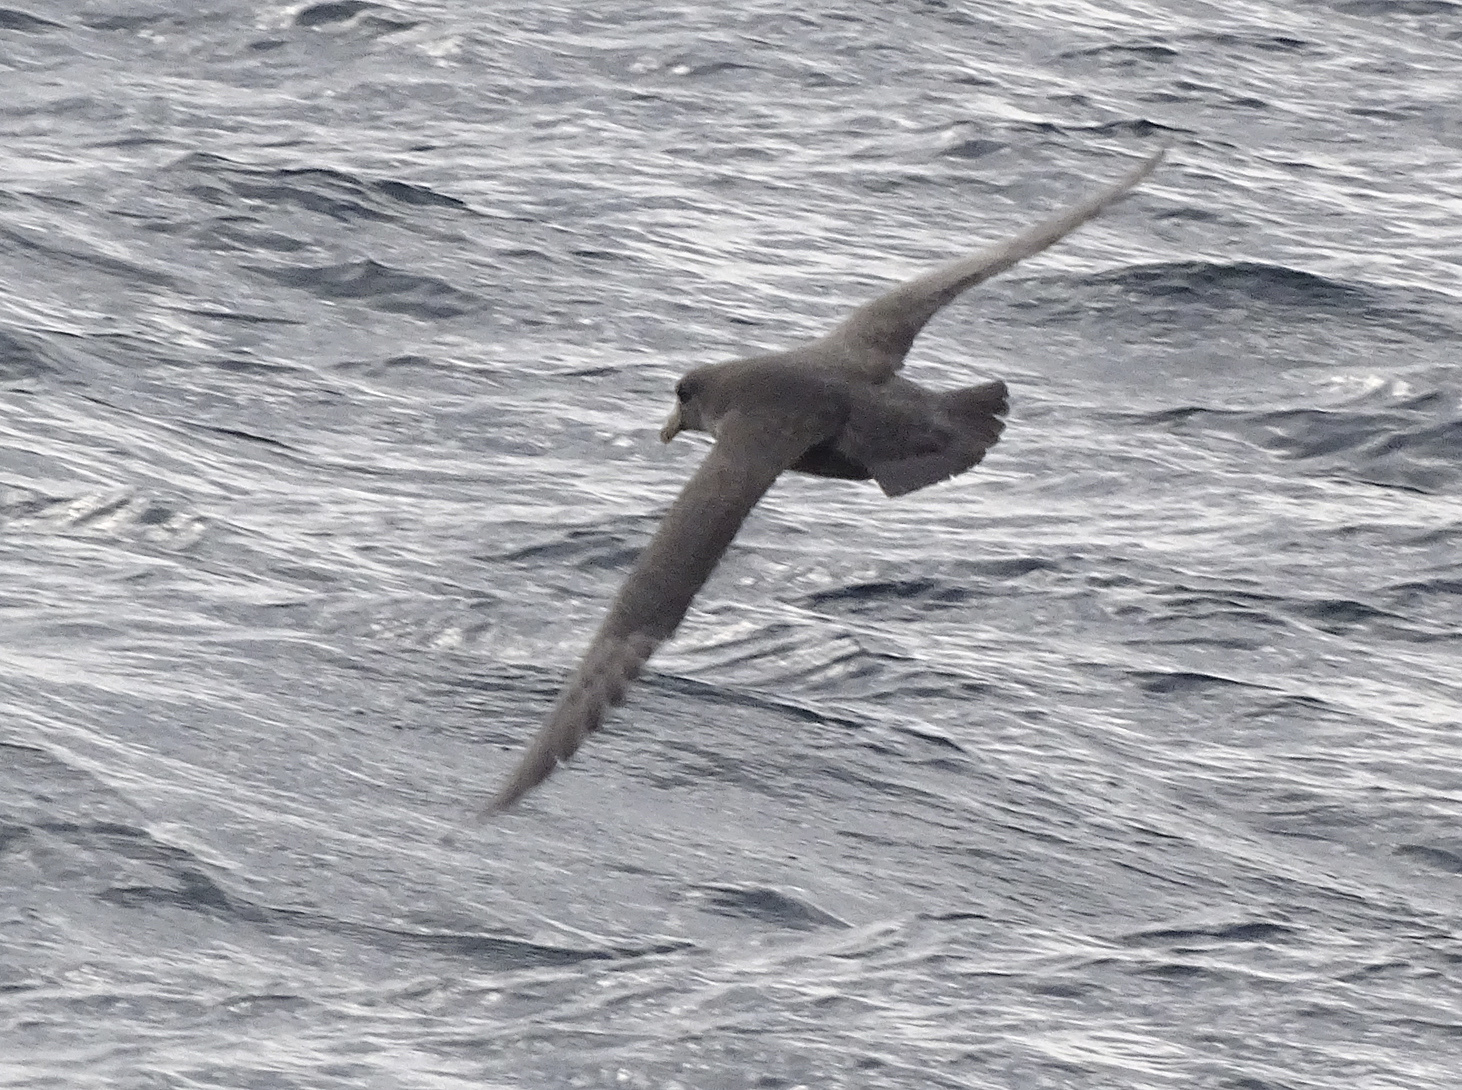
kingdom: Animalia
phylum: Chordata
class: Aves
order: Procellariiformes
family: Procellariidae
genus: Fulmarus
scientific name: Fulmarus glacialis
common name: Northern fulmar
